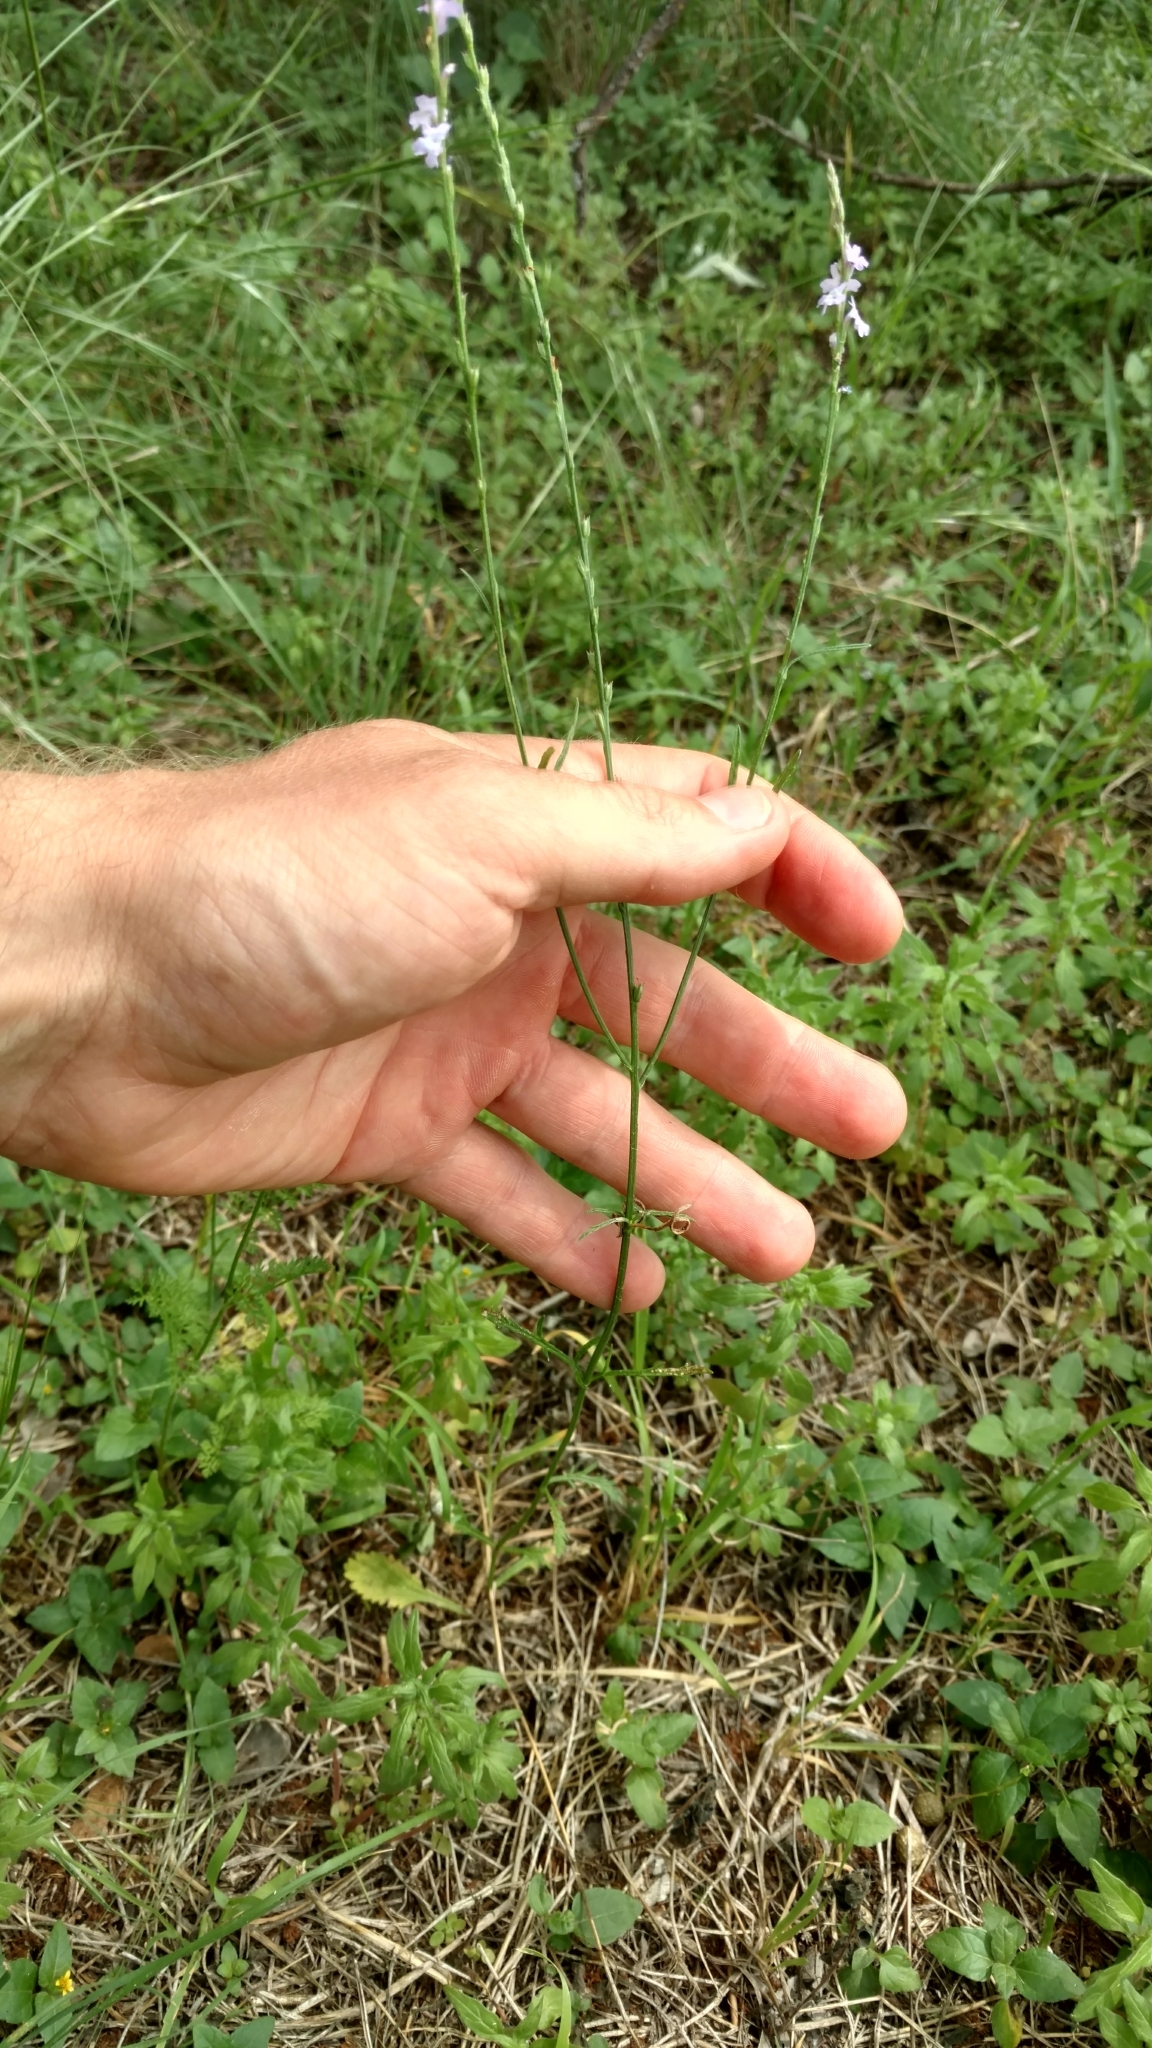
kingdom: Plantae
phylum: Tracheophyta
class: Magnoliopsida
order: Lamiales
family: Verbenaceae
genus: Verbena
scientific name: Verbena halei
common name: Texas vervain
